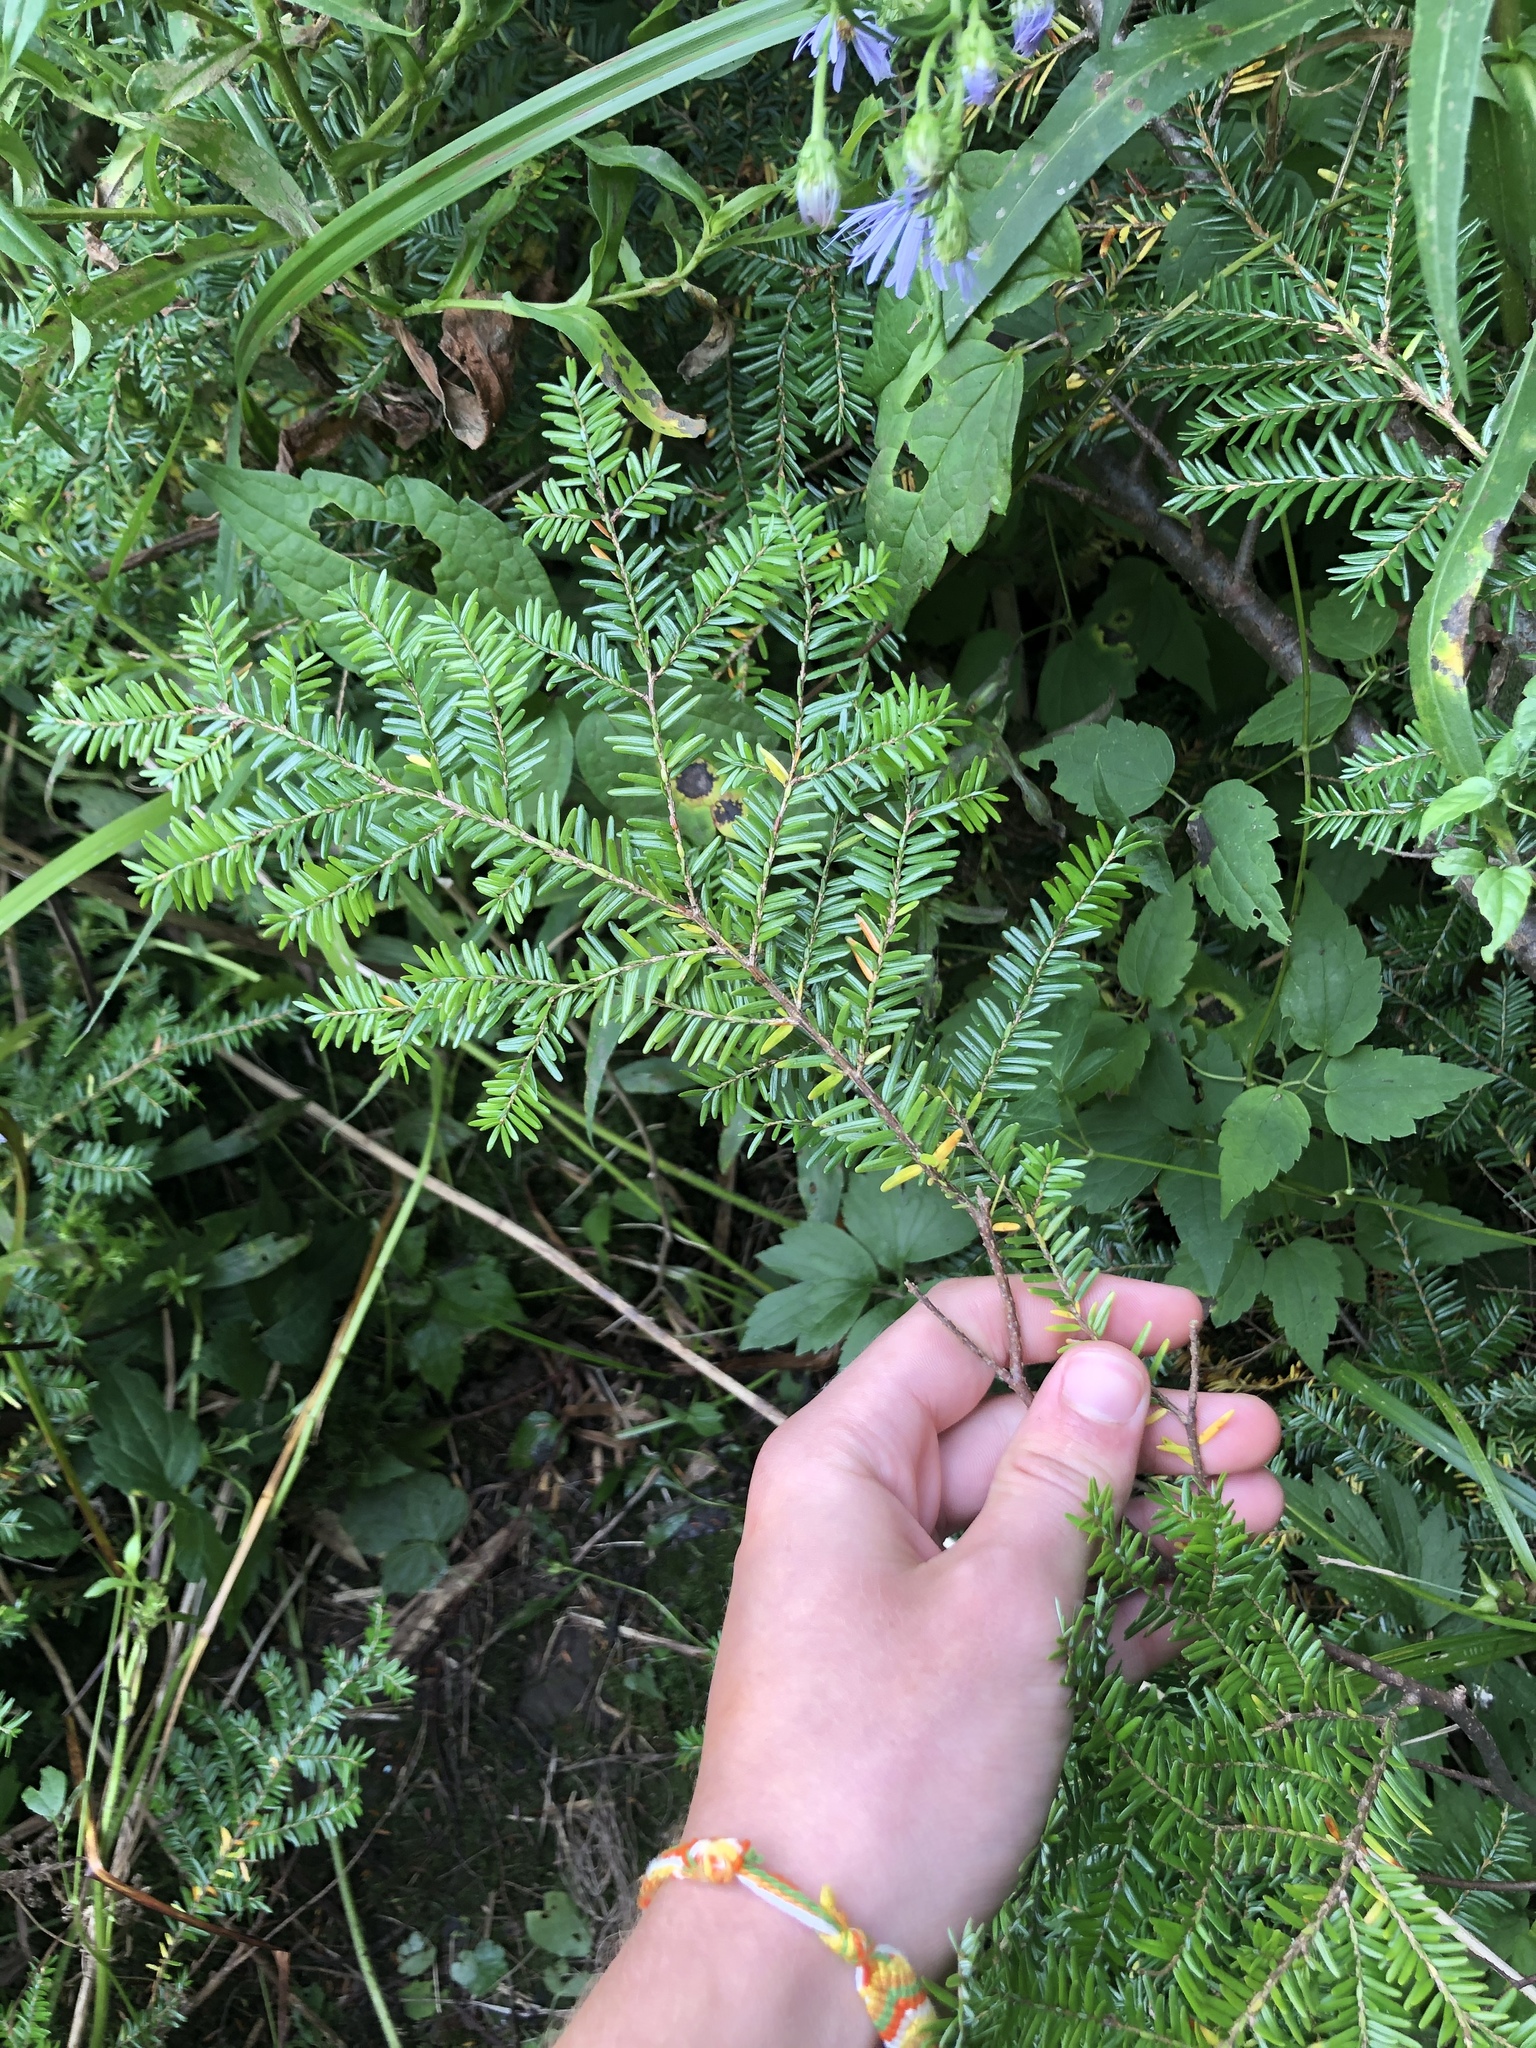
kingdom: Plantae
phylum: Tracheophyta
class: Pinopsida
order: Pinales
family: Pinaceae
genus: Tsuga
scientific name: Tsuga canadensis
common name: Eastern hemlock
